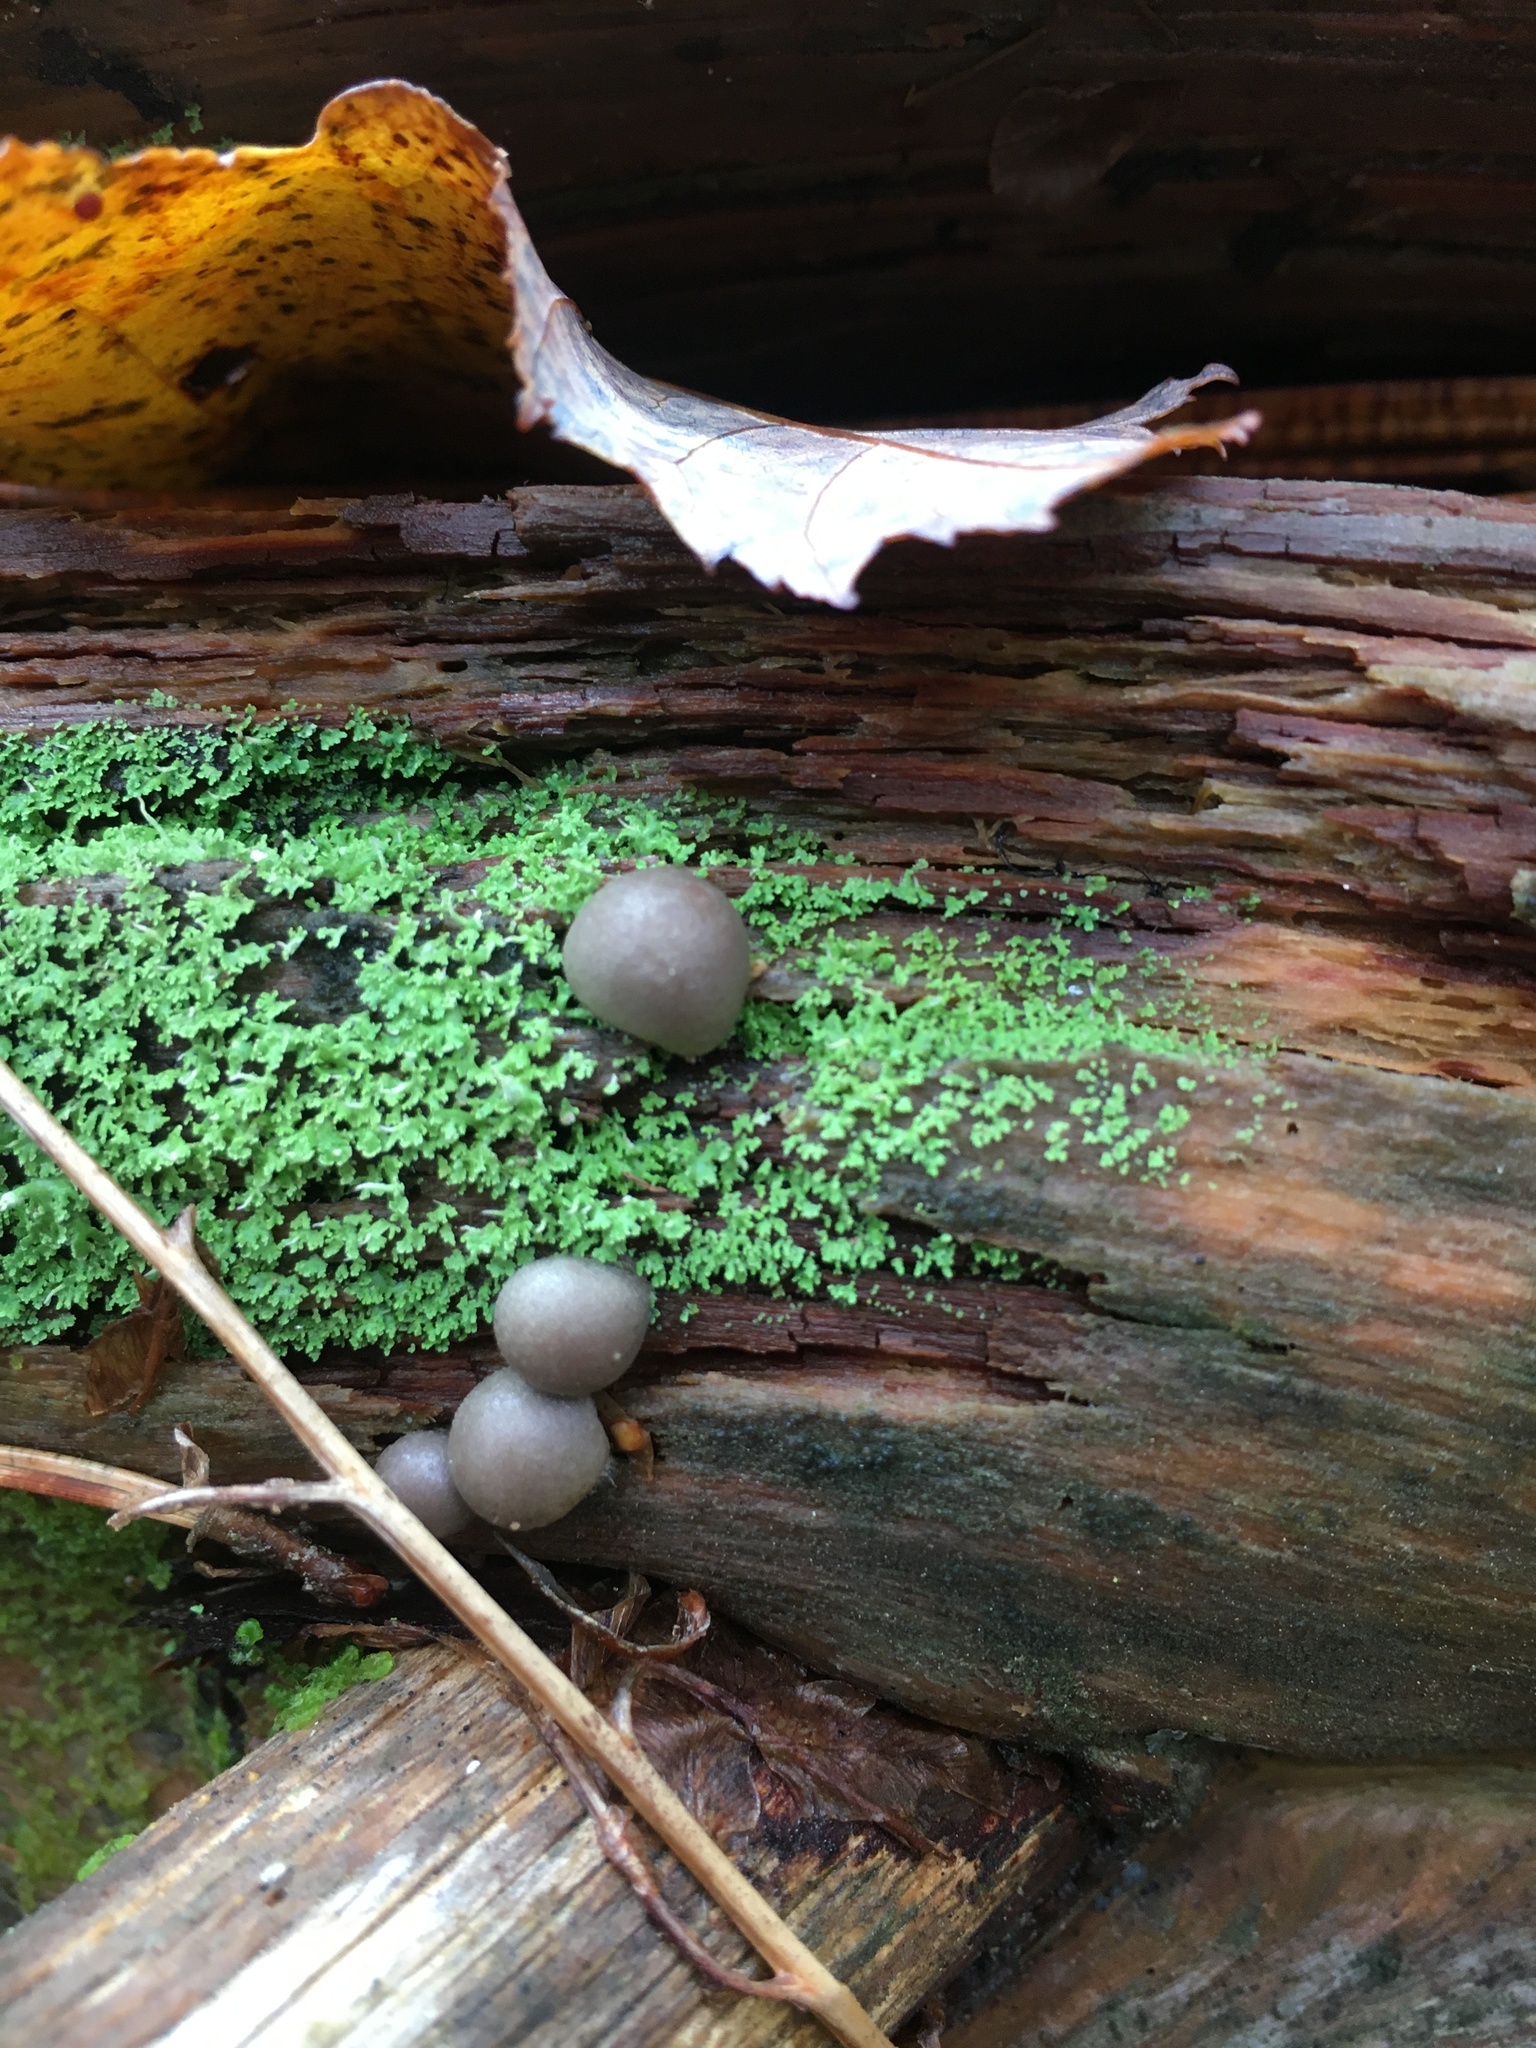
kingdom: Protozoa
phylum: Mycetozoa
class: Myxomycetes
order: Cribrariales
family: Tubiferaceae
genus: Lycogala
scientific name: Lycogala epidendrum
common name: Wolf's milk
